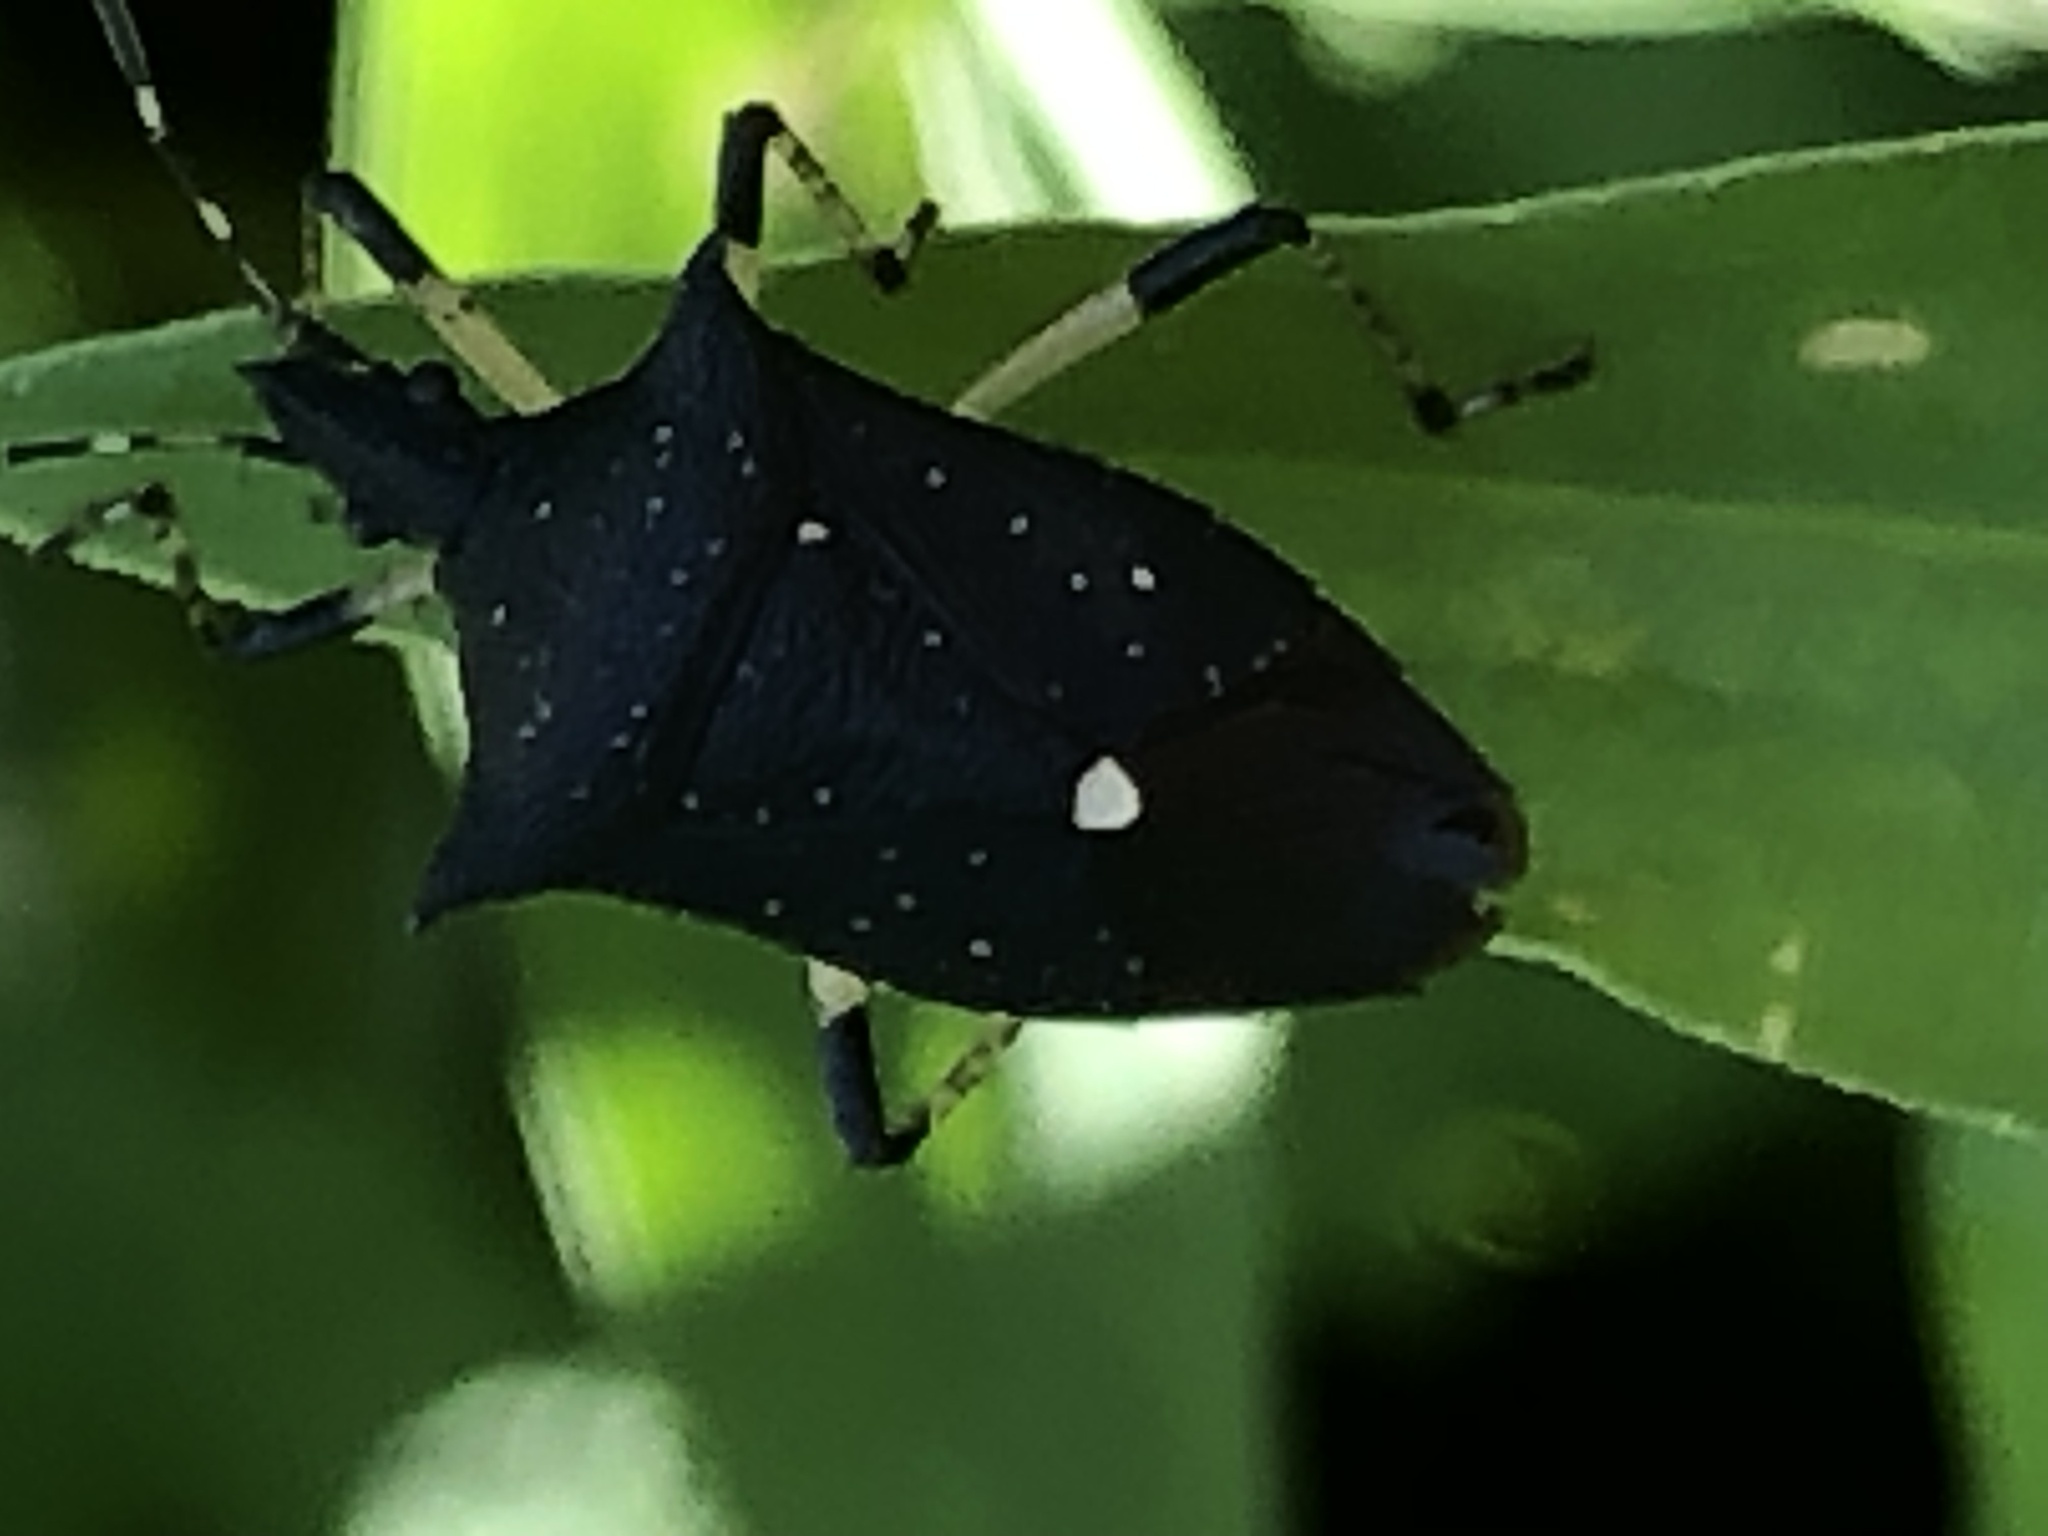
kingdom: Animalia
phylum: Arthropoda
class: Insecta
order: Hemiptera
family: Pentatomidae
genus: Proxys
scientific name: Proxys punctulatus
